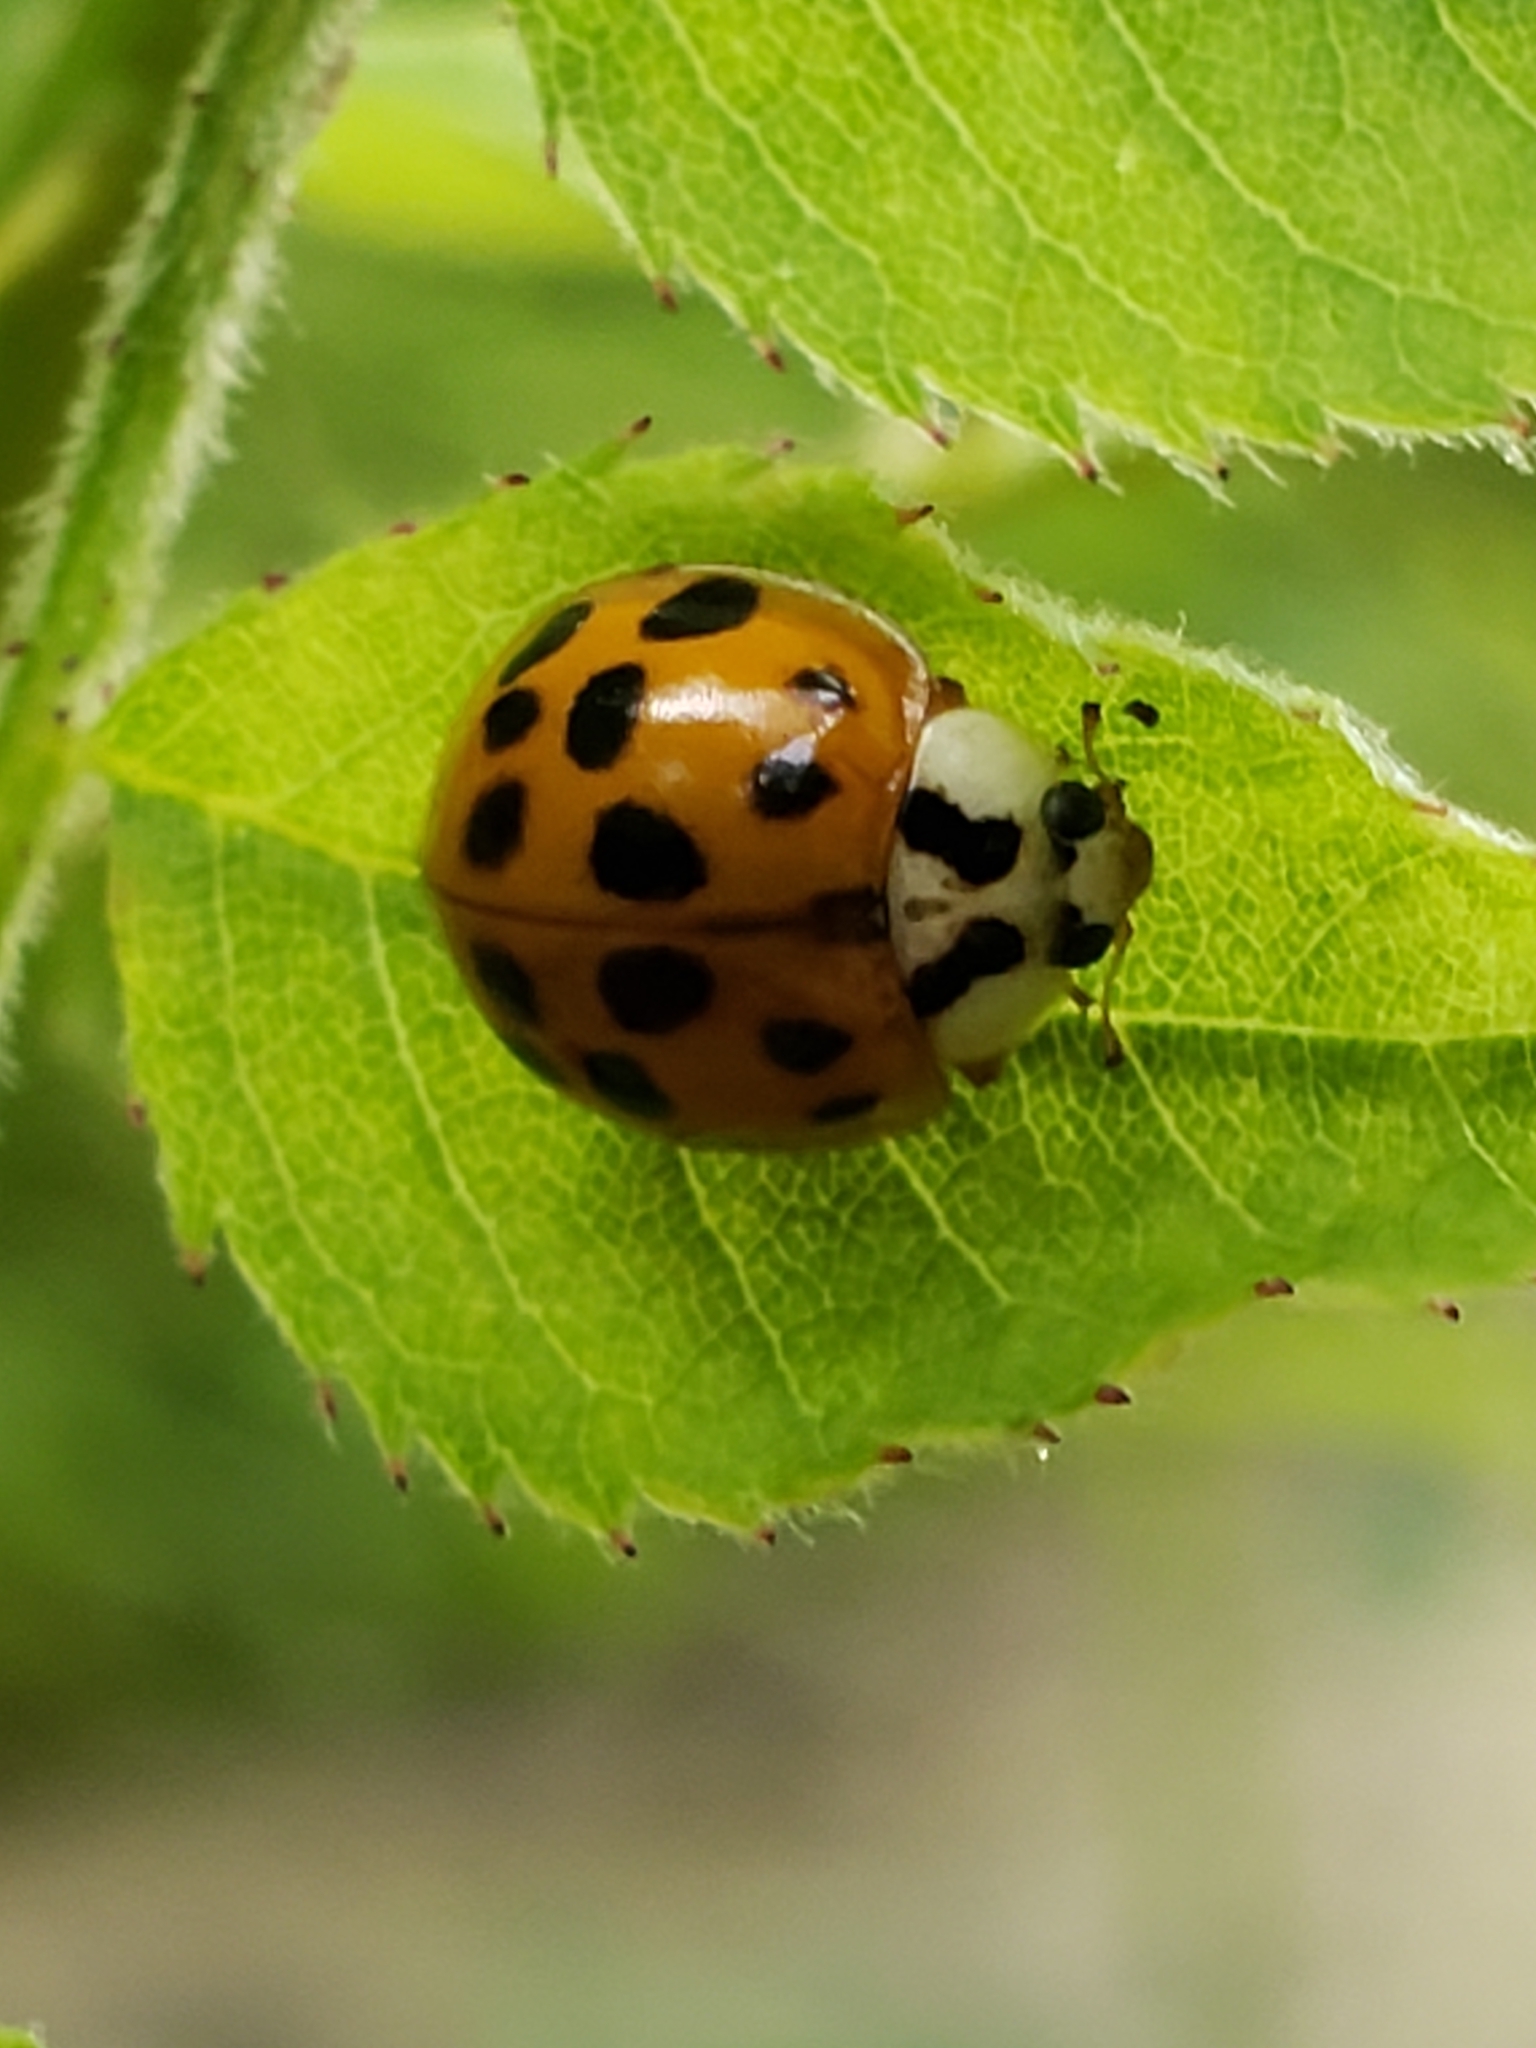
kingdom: Animalia
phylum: Arthropoda
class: Insecta
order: Coleoptera
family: Coccinellidae
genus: Harmonia
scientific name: Harmonia axyridis
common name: Harlequin ladybird
